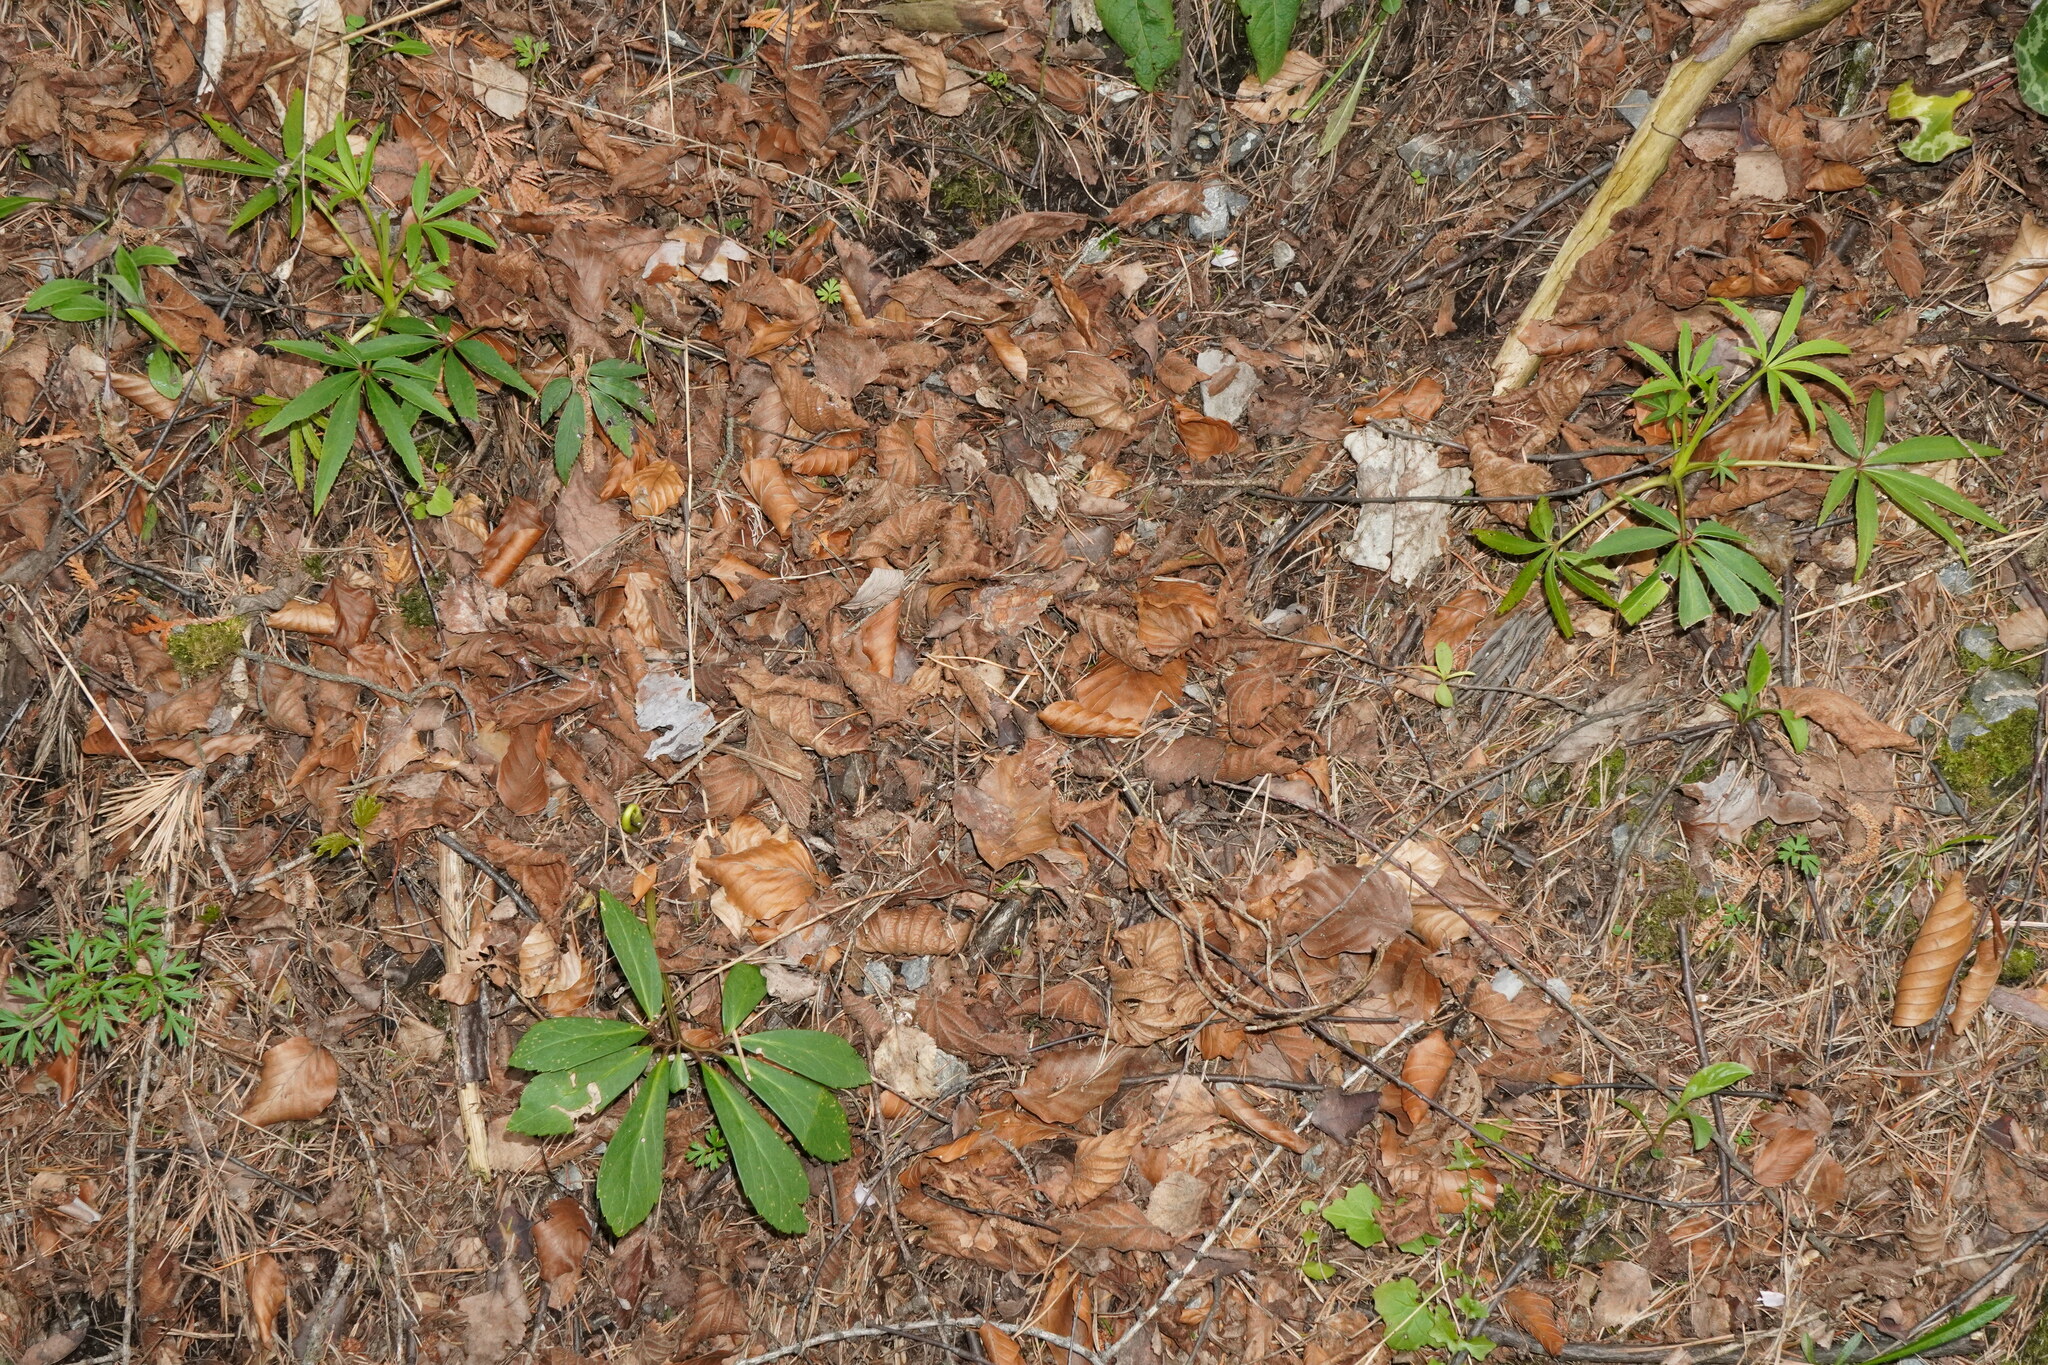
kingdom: Plantae
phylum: Tracheophyta
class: Magnoliopsida
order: Ranunculales
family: Ranunculaceae
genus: Helleborus
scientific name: Helleborus foetidus
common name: Stinking hellebore
